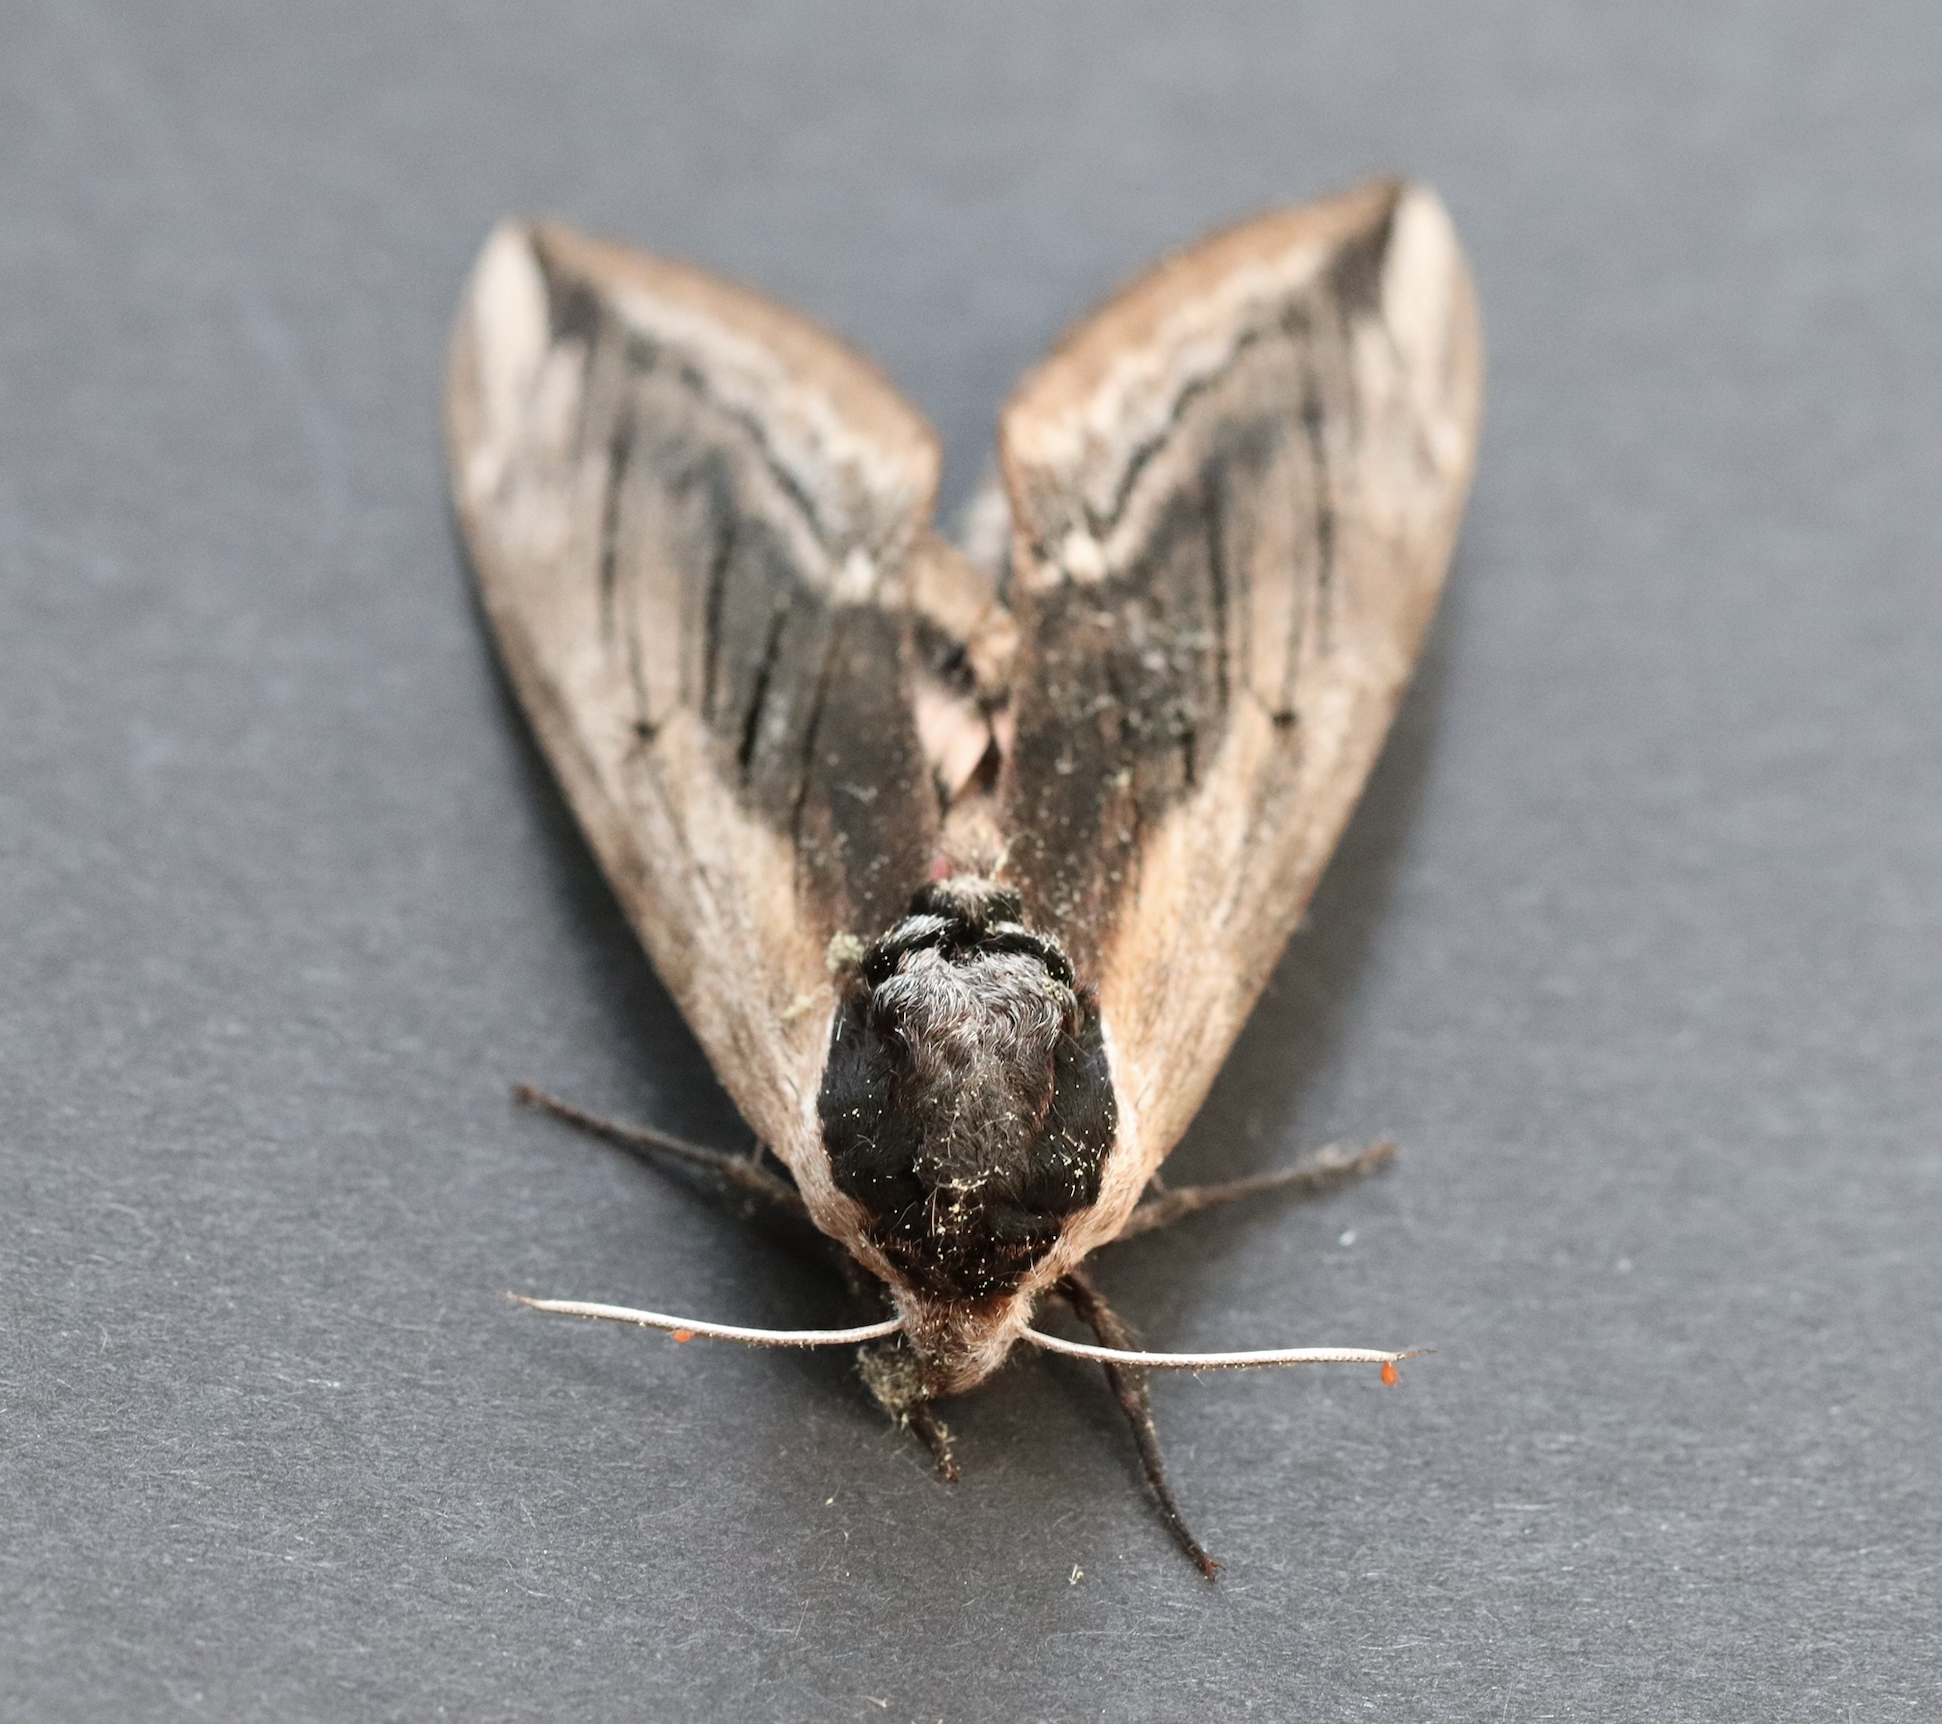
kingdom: Animalia
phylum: Arthropoda
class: Insecta
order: Lepidoptera
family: Sphingidae
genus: Sphinx
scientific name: Sphinx ligustri
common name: Privet hawk-moth
